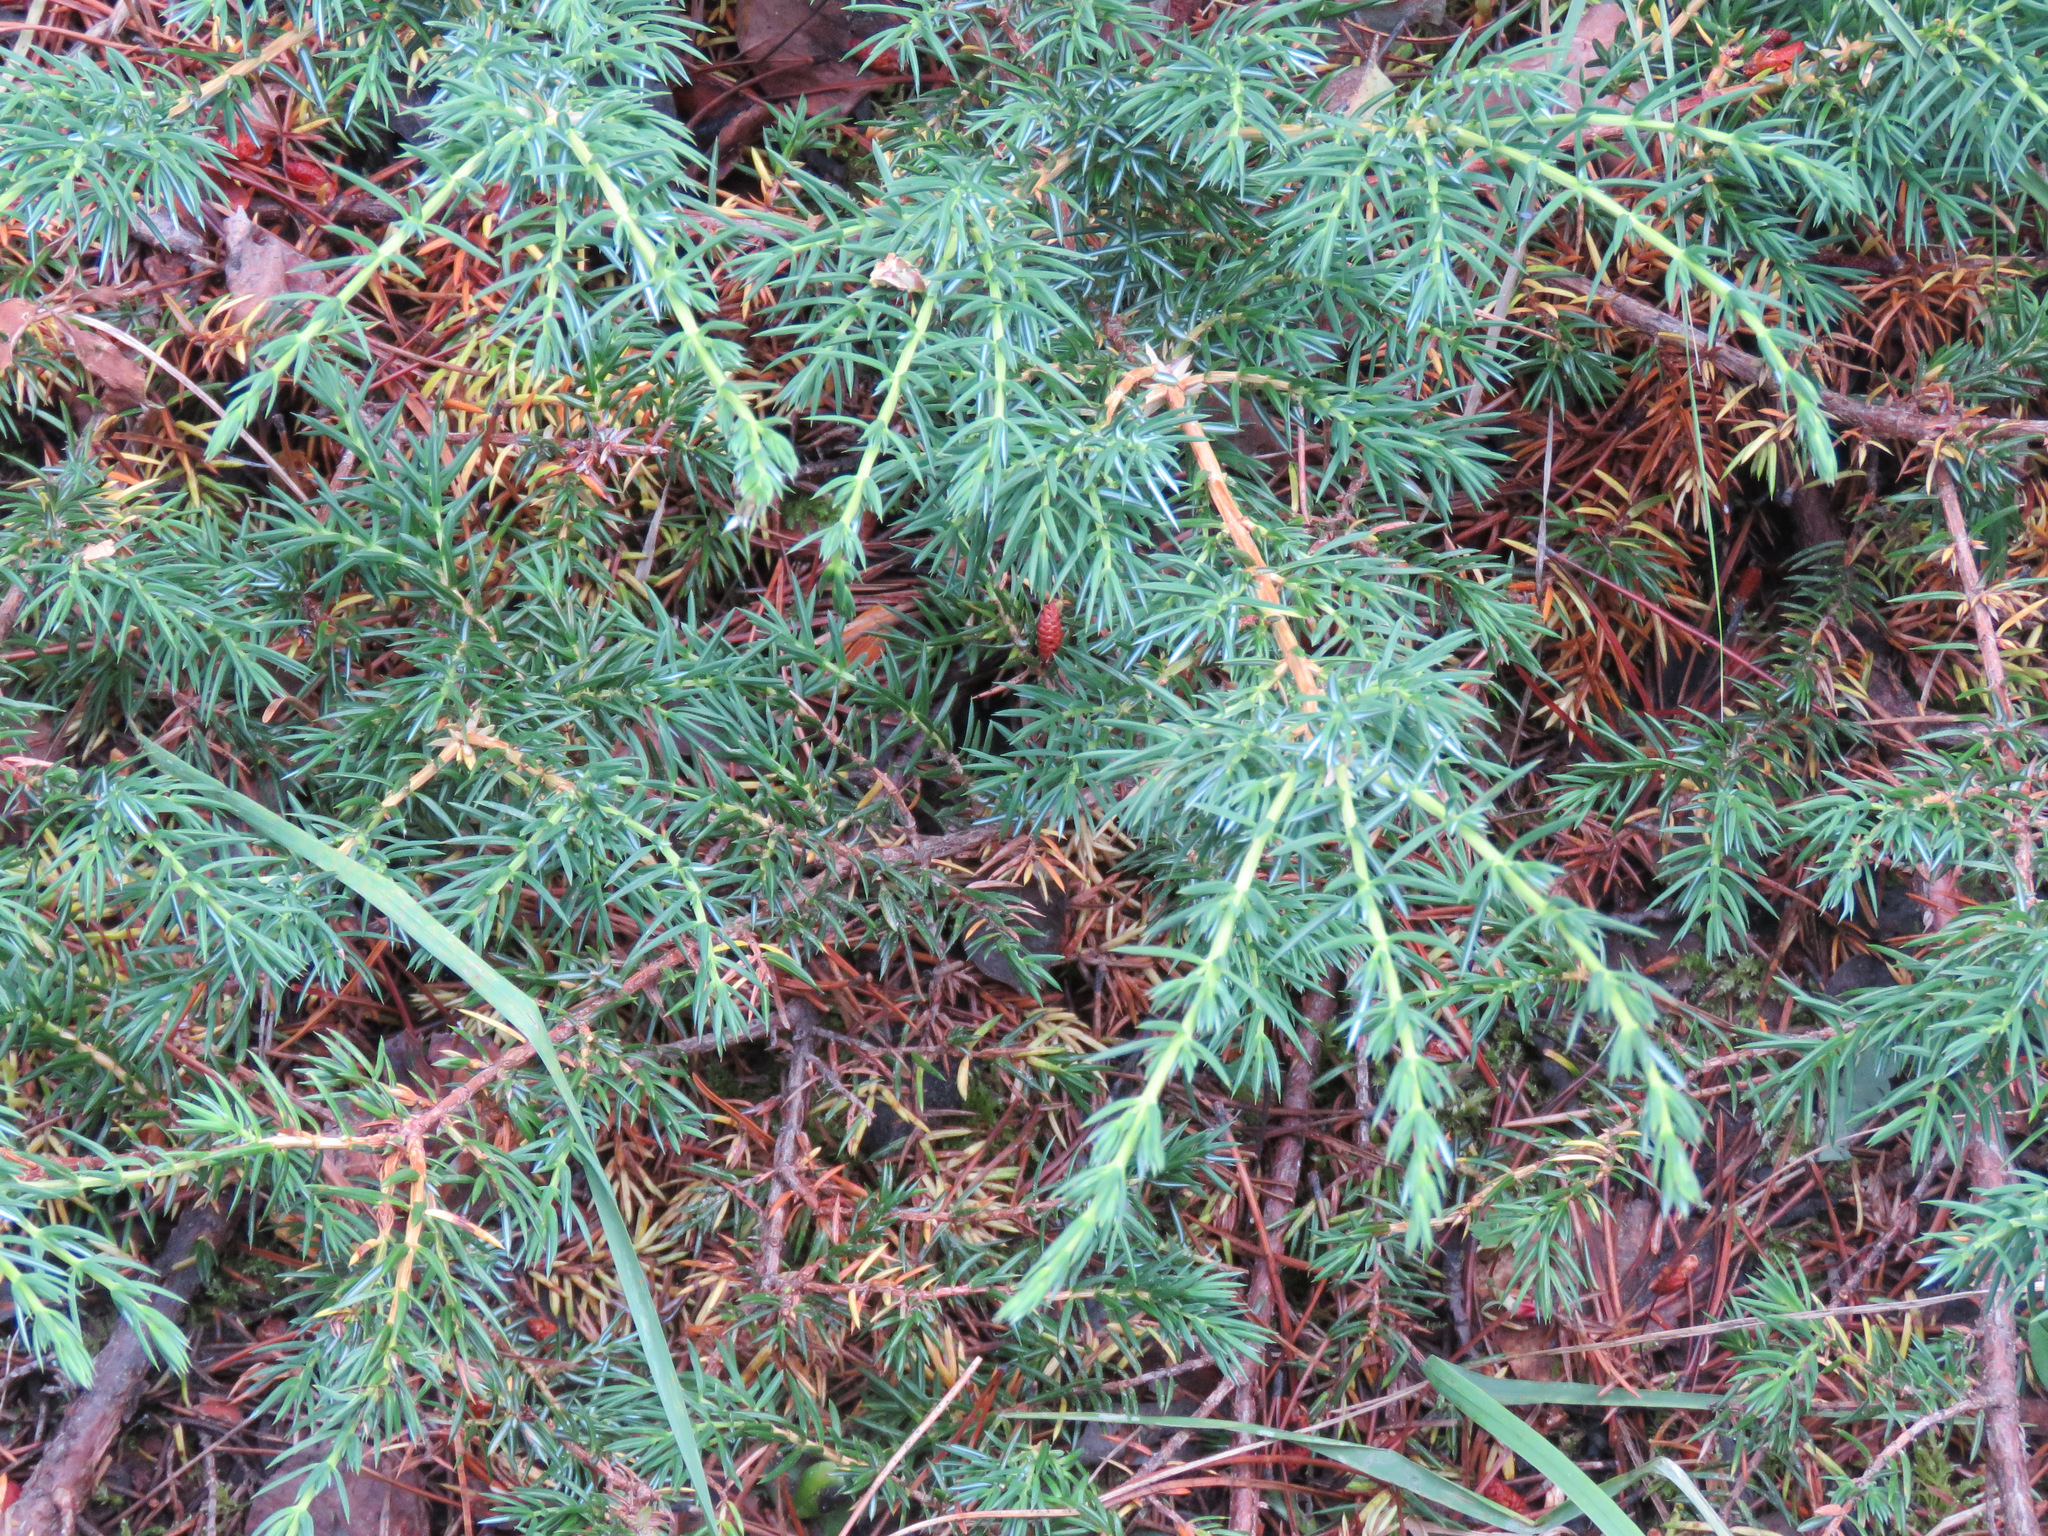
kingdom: Plantae
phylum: Tracheophyta
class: Pinopsida
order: Pinales
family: Cupressaceae
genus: Juniperus
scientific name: Juniperus communis
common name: Common juniper
